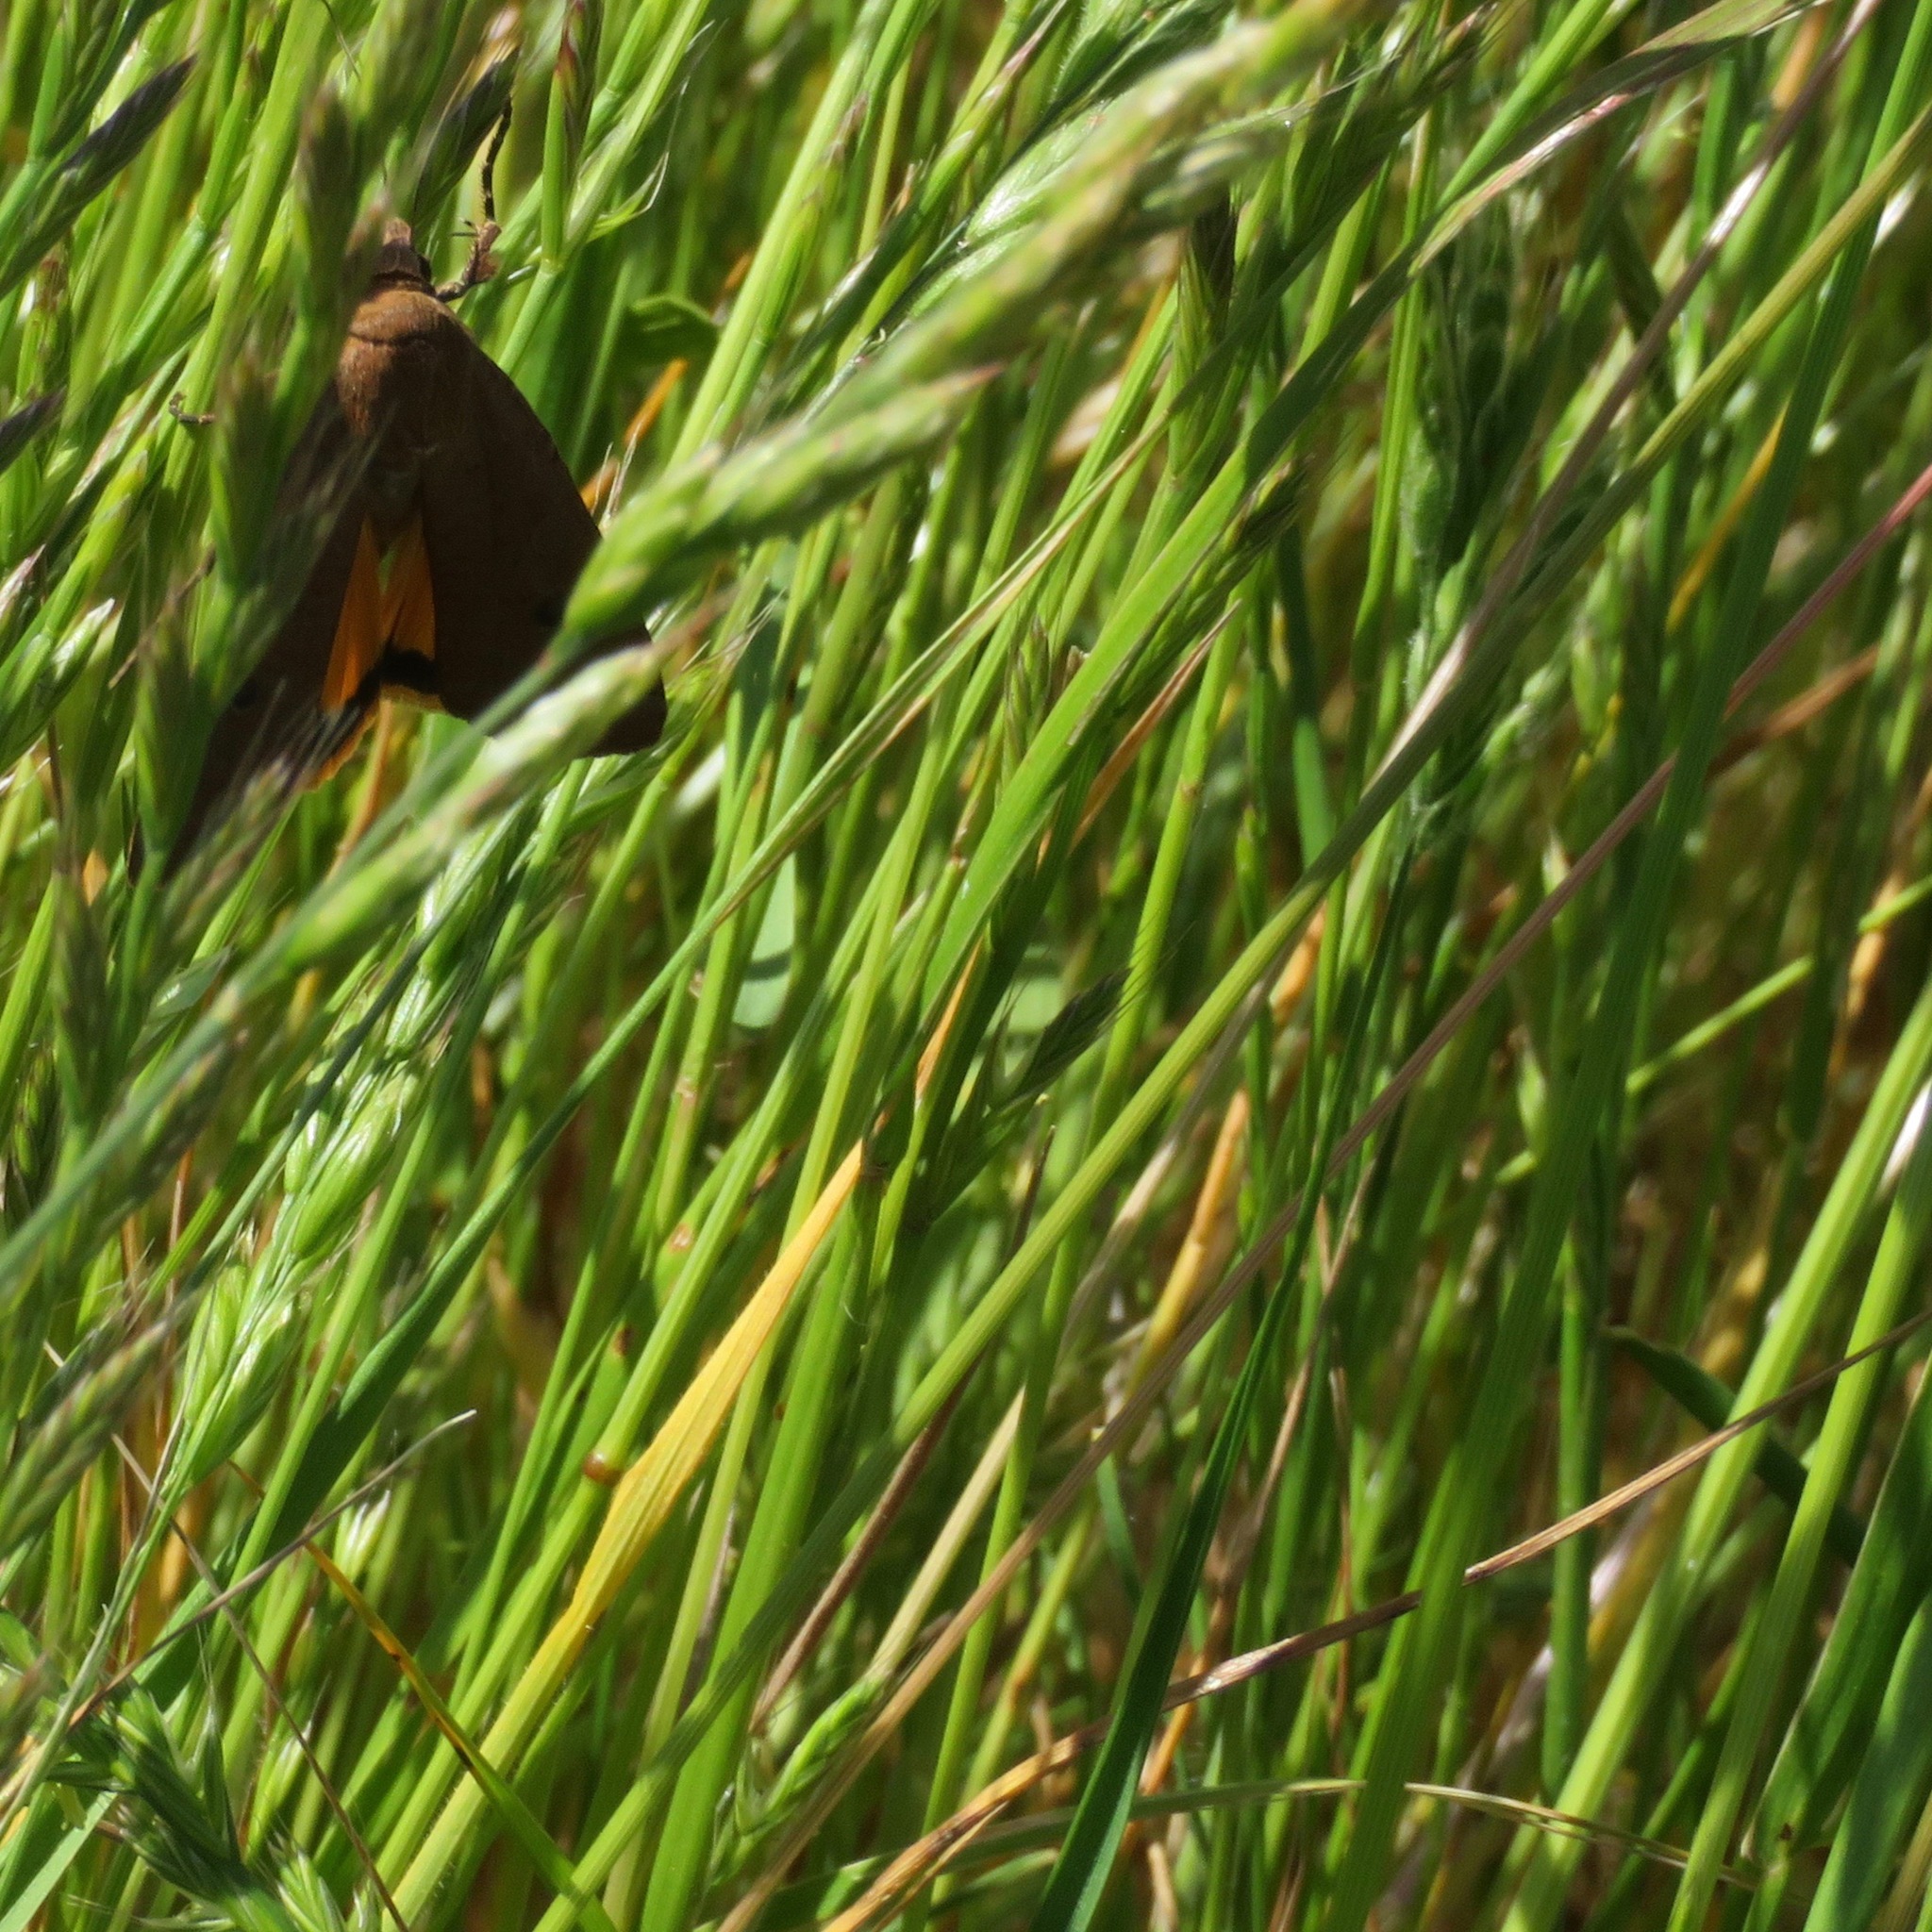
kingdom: Animalia
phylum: Arthropoda
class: Insecta
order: Lepidoptera
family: Noctuidae
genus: Noctua
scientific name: Noctua pronuba
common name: Large yellow underwing
